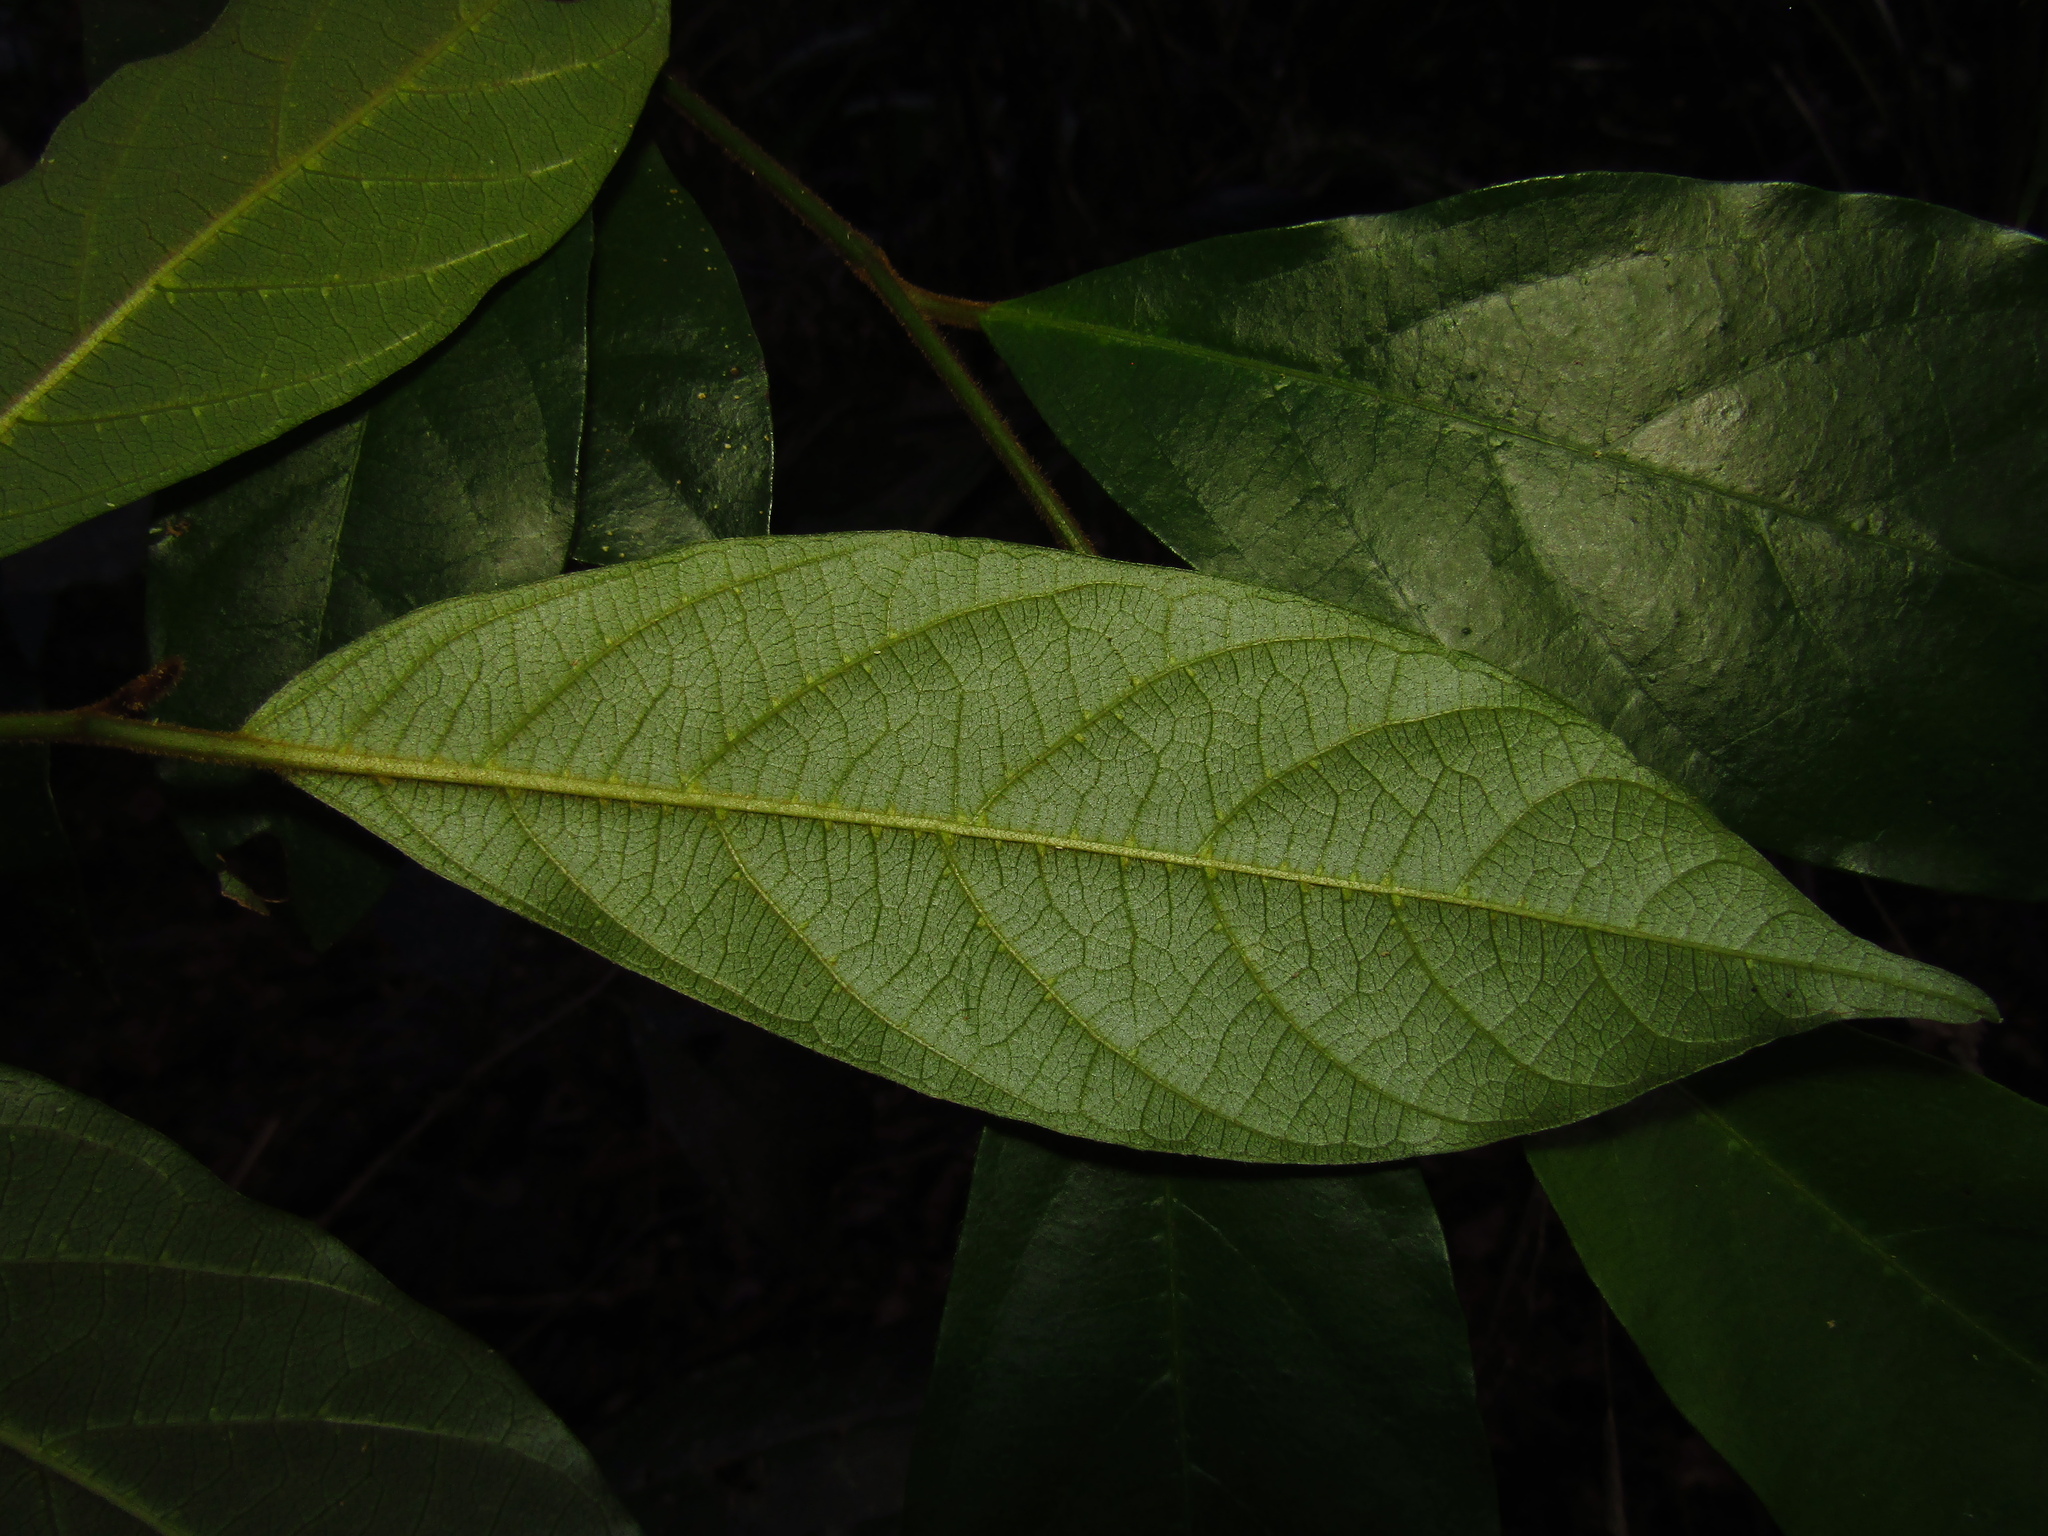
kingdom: Plantae
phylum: Tracheophyta
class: Magnoliopsida
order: Cornales
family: Cornaceae
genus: Alangium
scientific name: Alangium villosum
